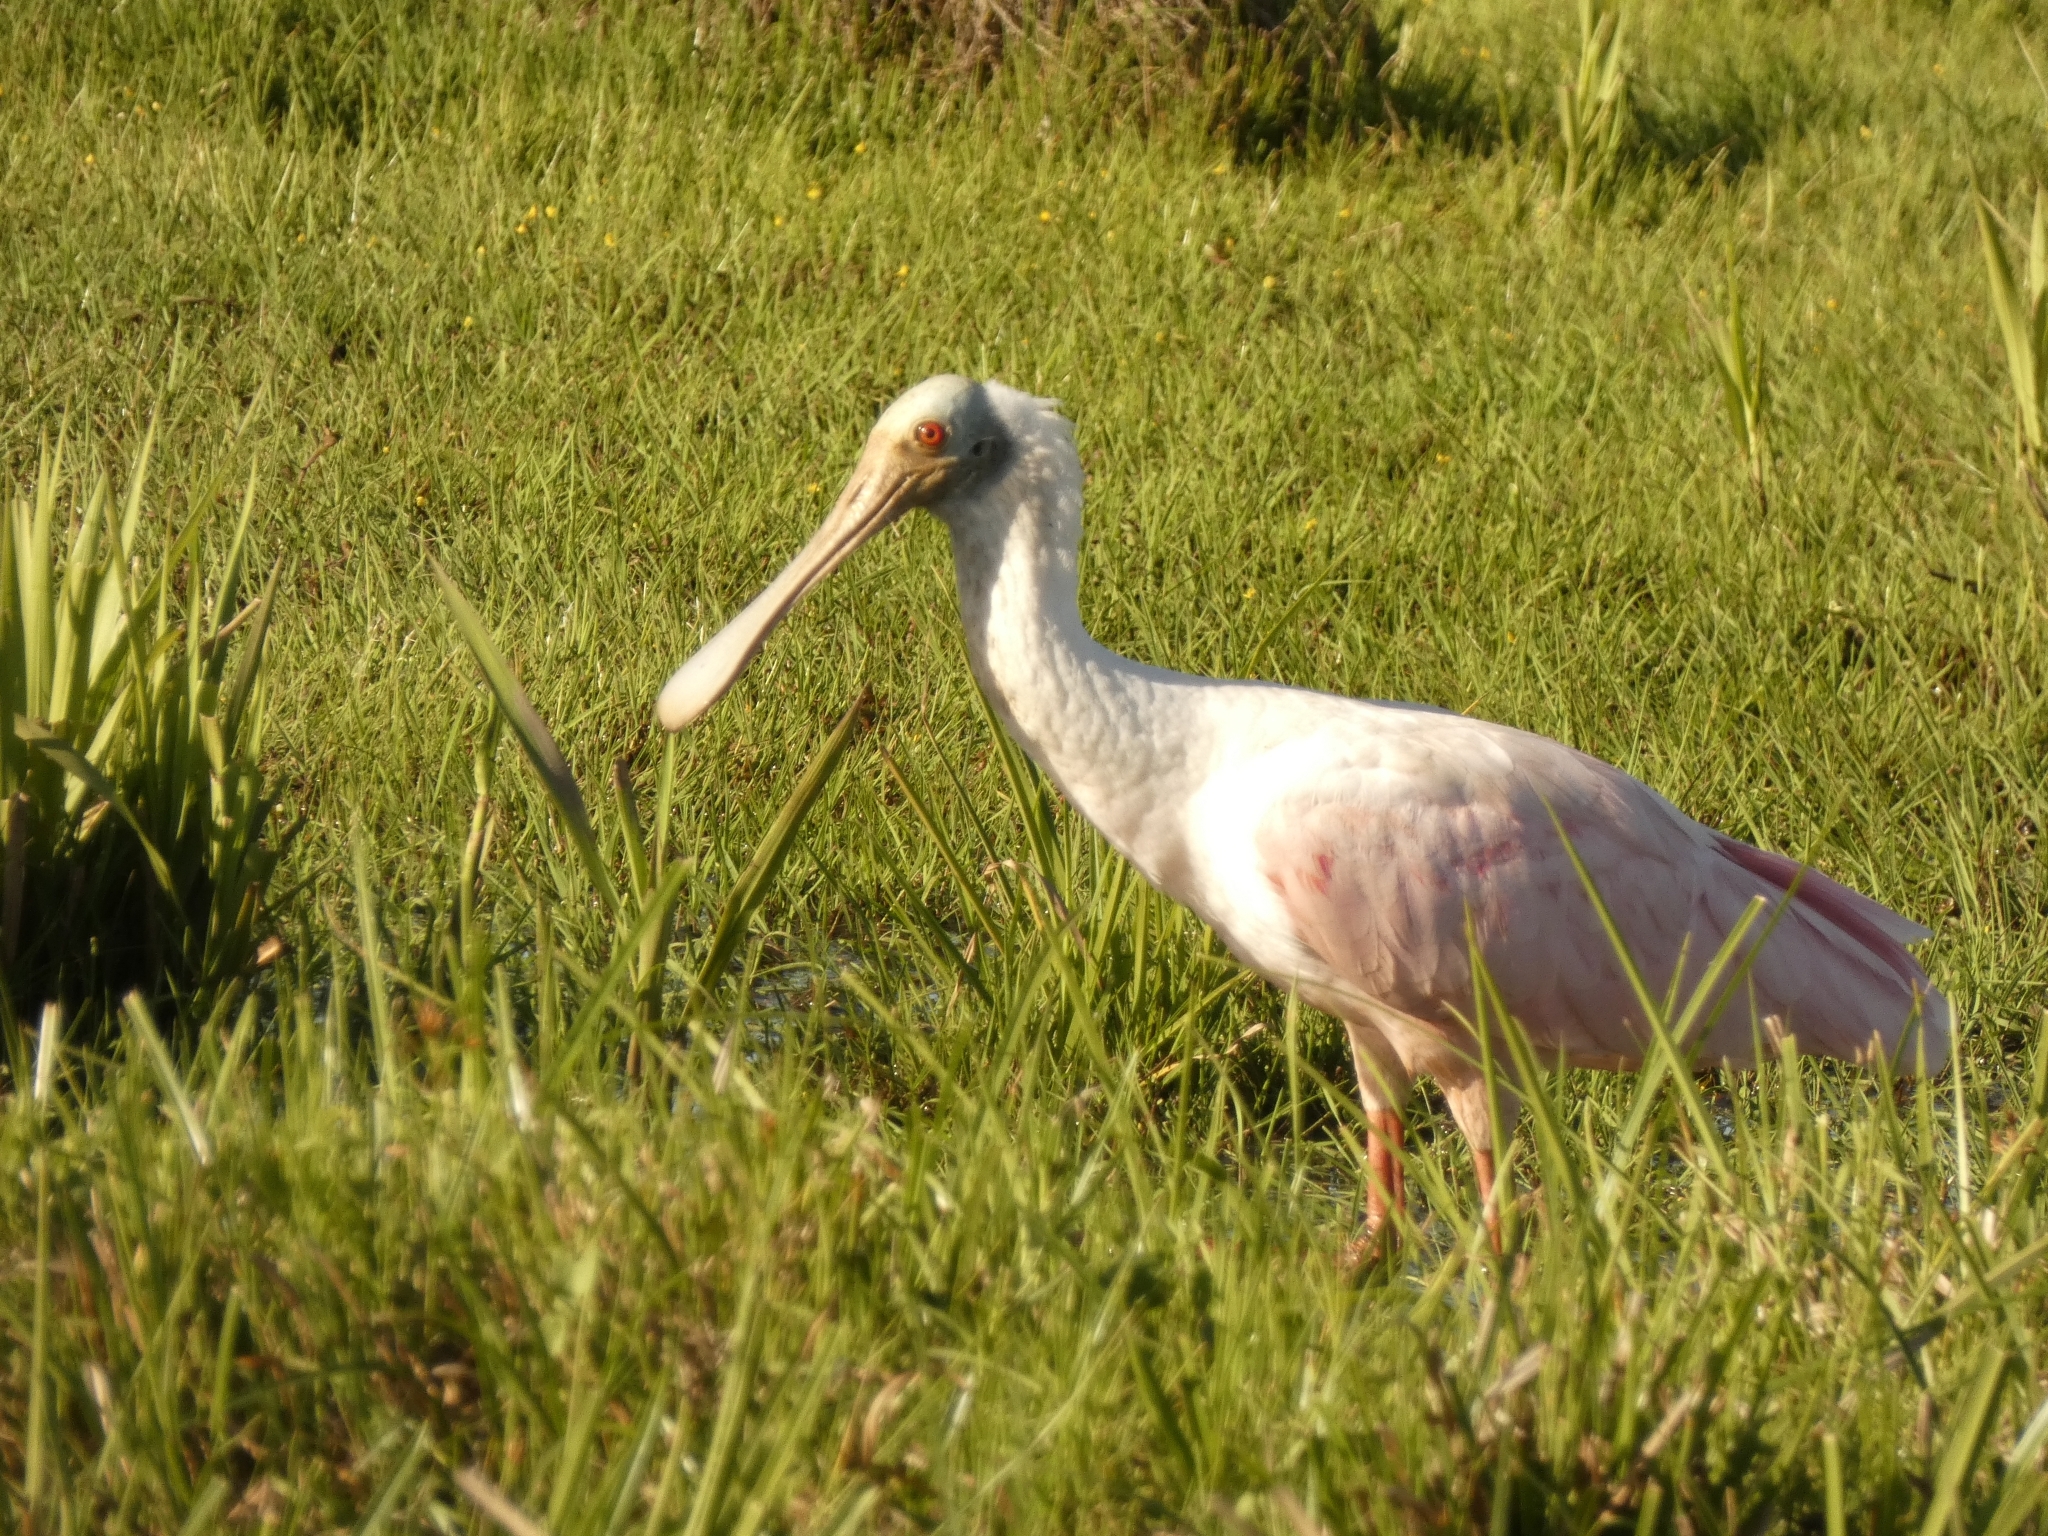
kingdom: Animalia
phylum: Chordata
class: Aves
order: Pelecaniformes
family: Threskiornithidae
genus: Platalea
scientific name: Platalea ajaja
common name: Roseate spoonbill
